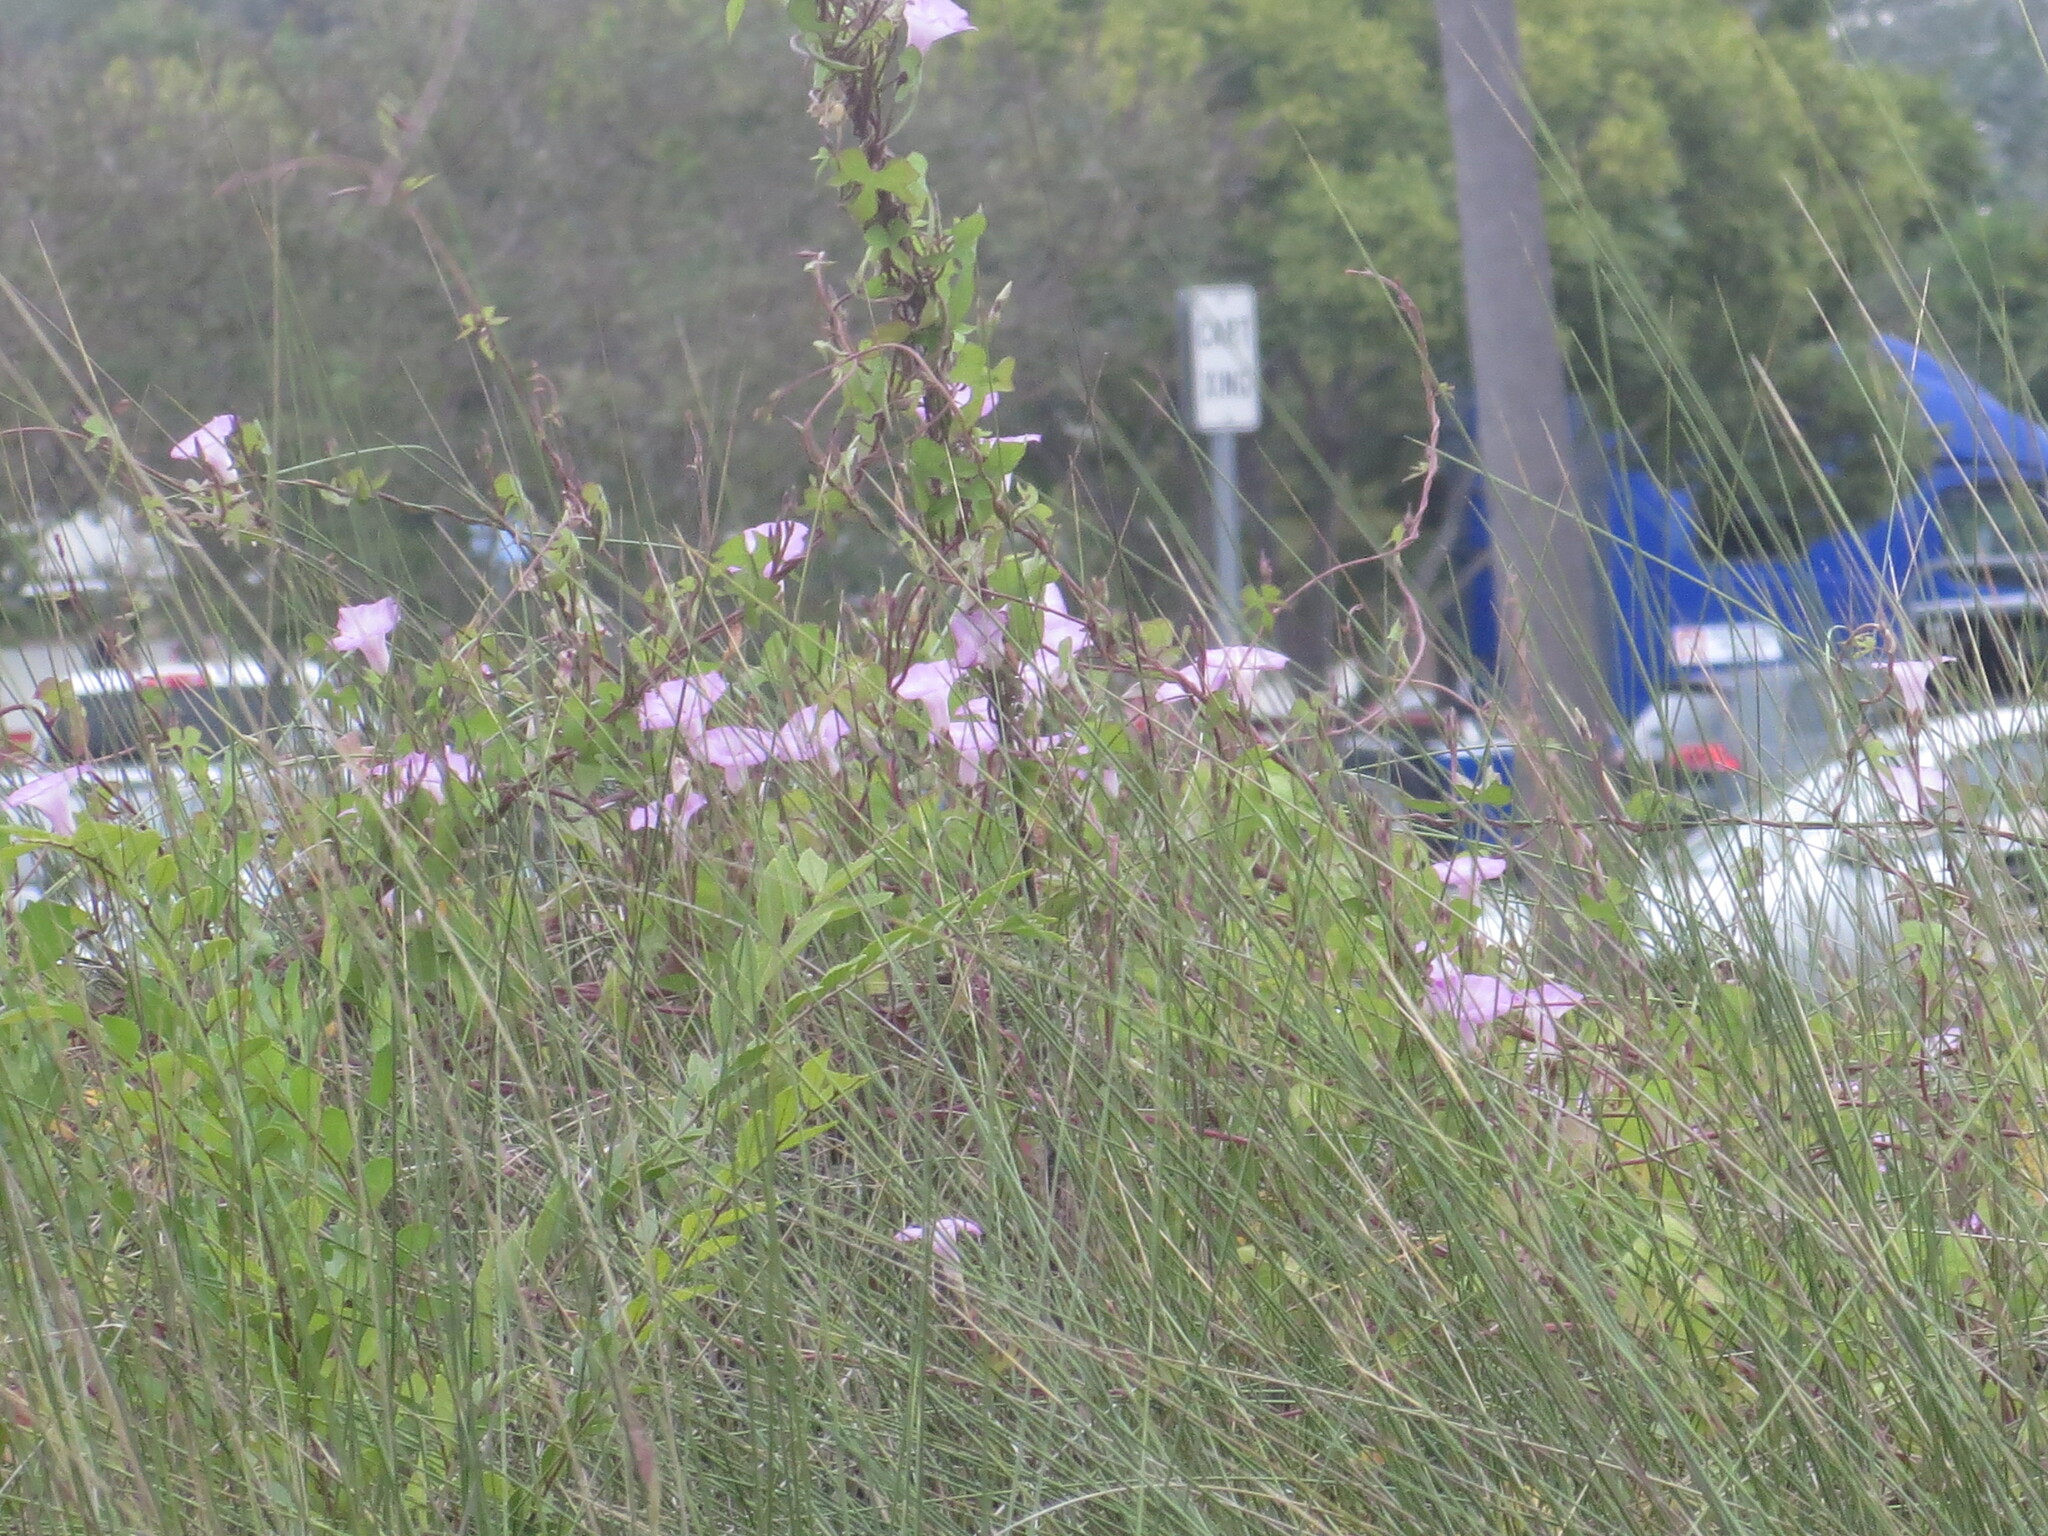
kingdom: Plantae
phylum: Tracheophyta
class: Magnoliopsida
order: Solanales
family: Convolvulaceae
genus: Ipomoea
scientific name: Ipomoea cordatotriloba
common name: Cotton morning glory
